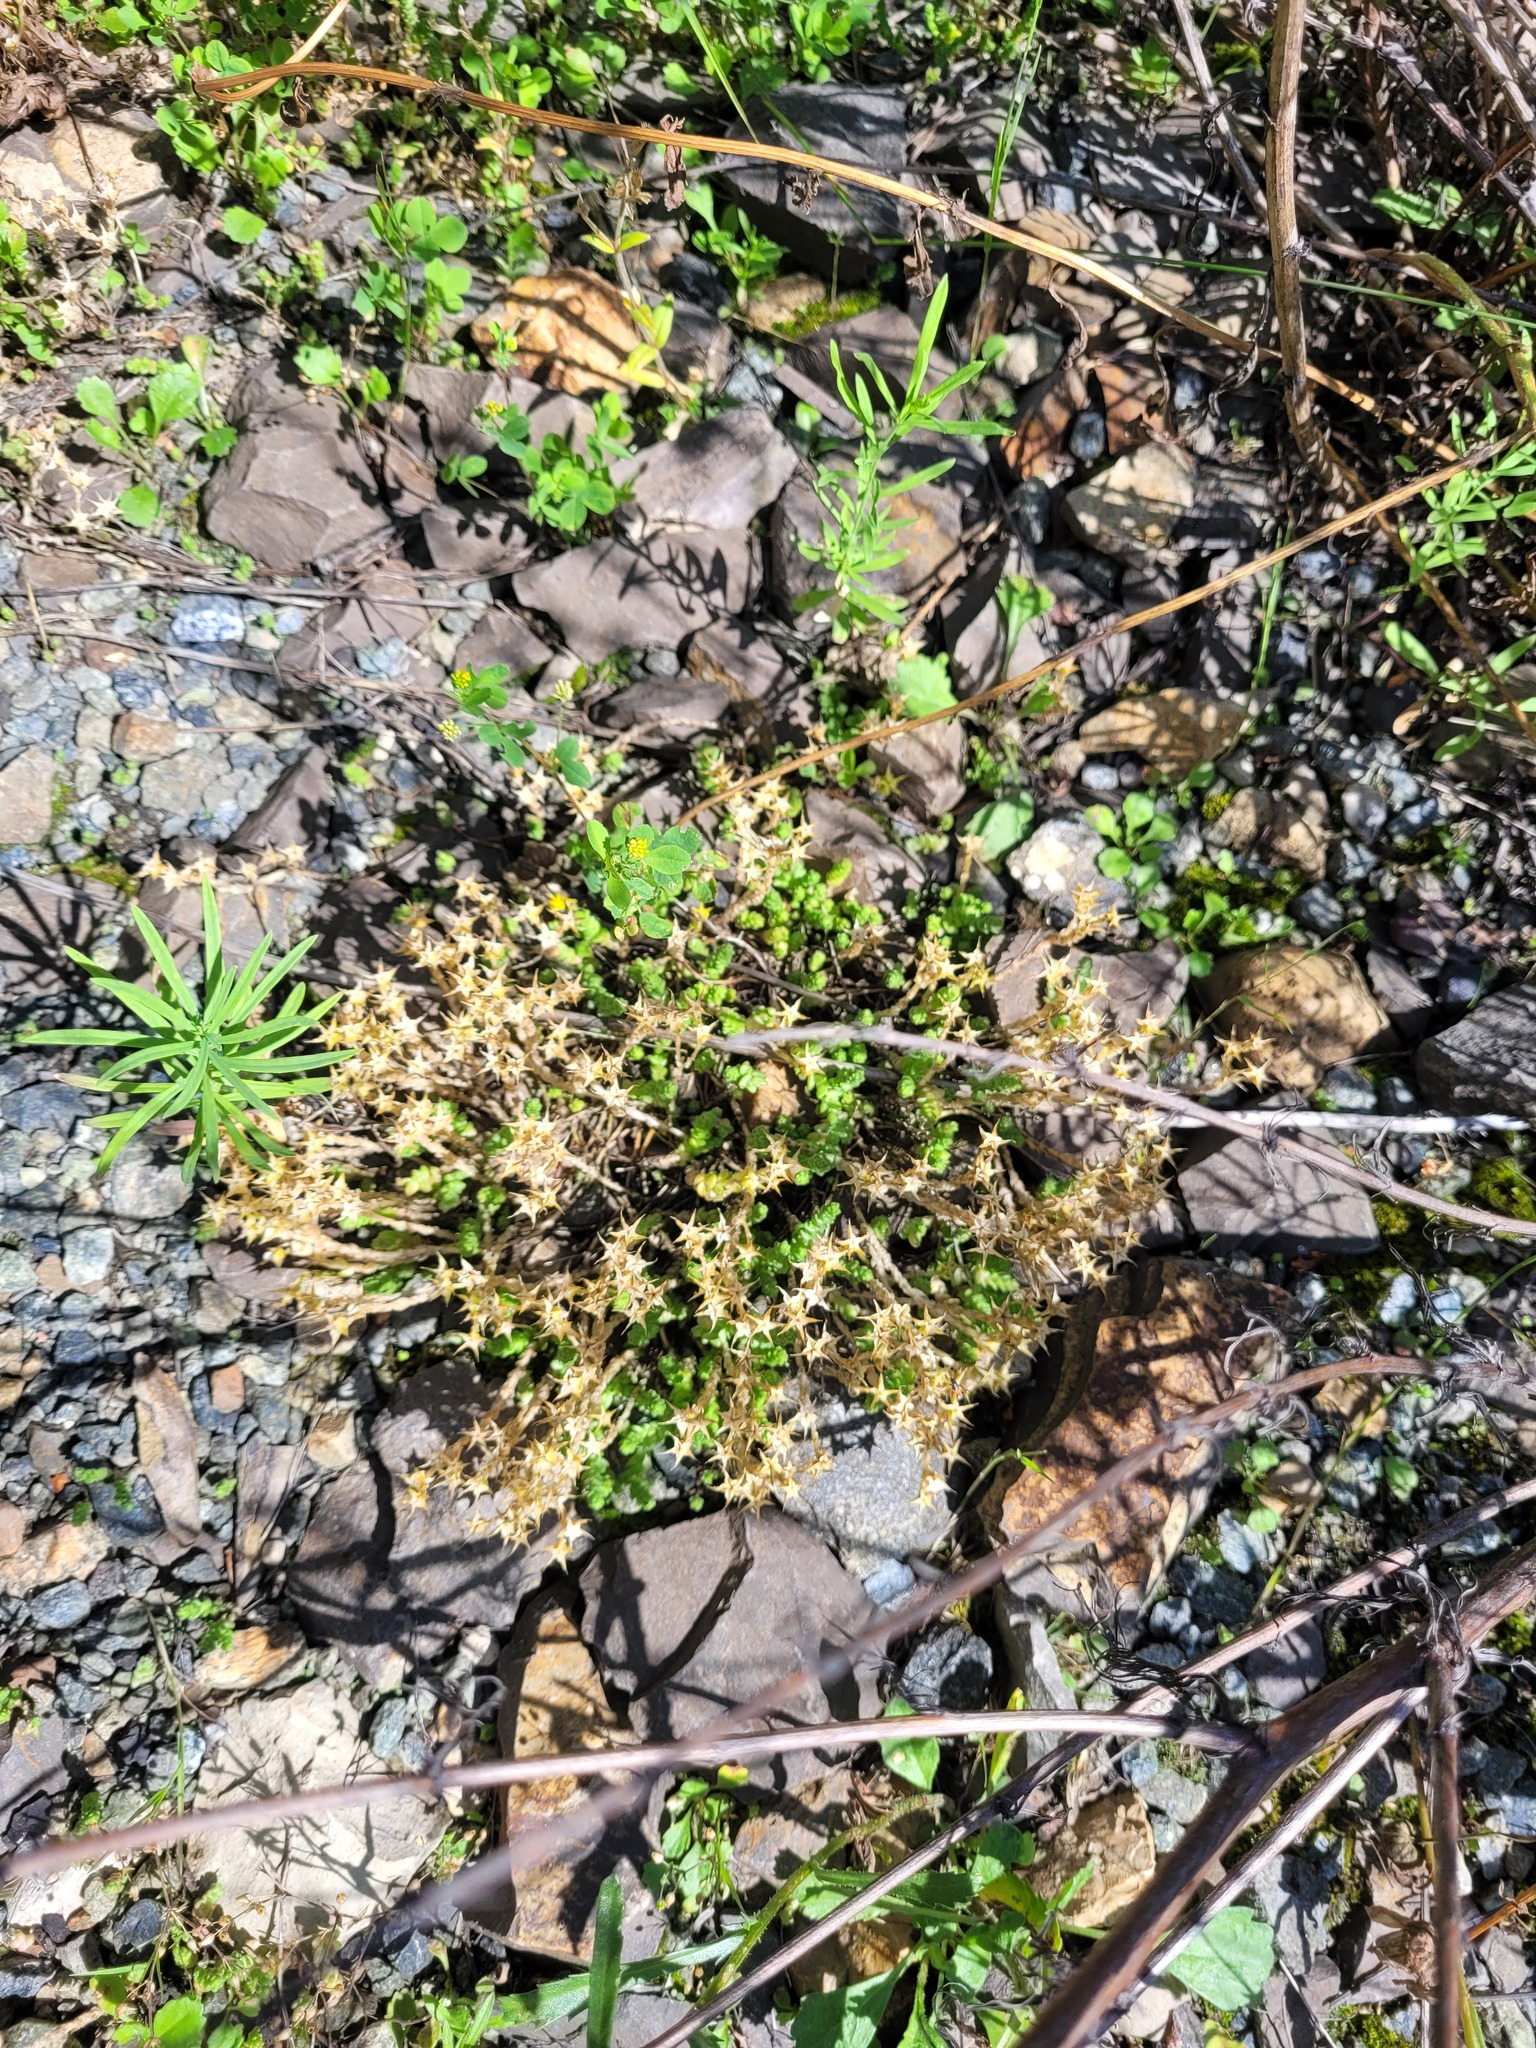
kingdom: Plantae
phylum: Tracheophyta
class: Magnoliopsida
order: Saxifragales
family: Crassulaceae
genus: Sedum
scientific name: Sedum acre
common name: Biting stonecrop
